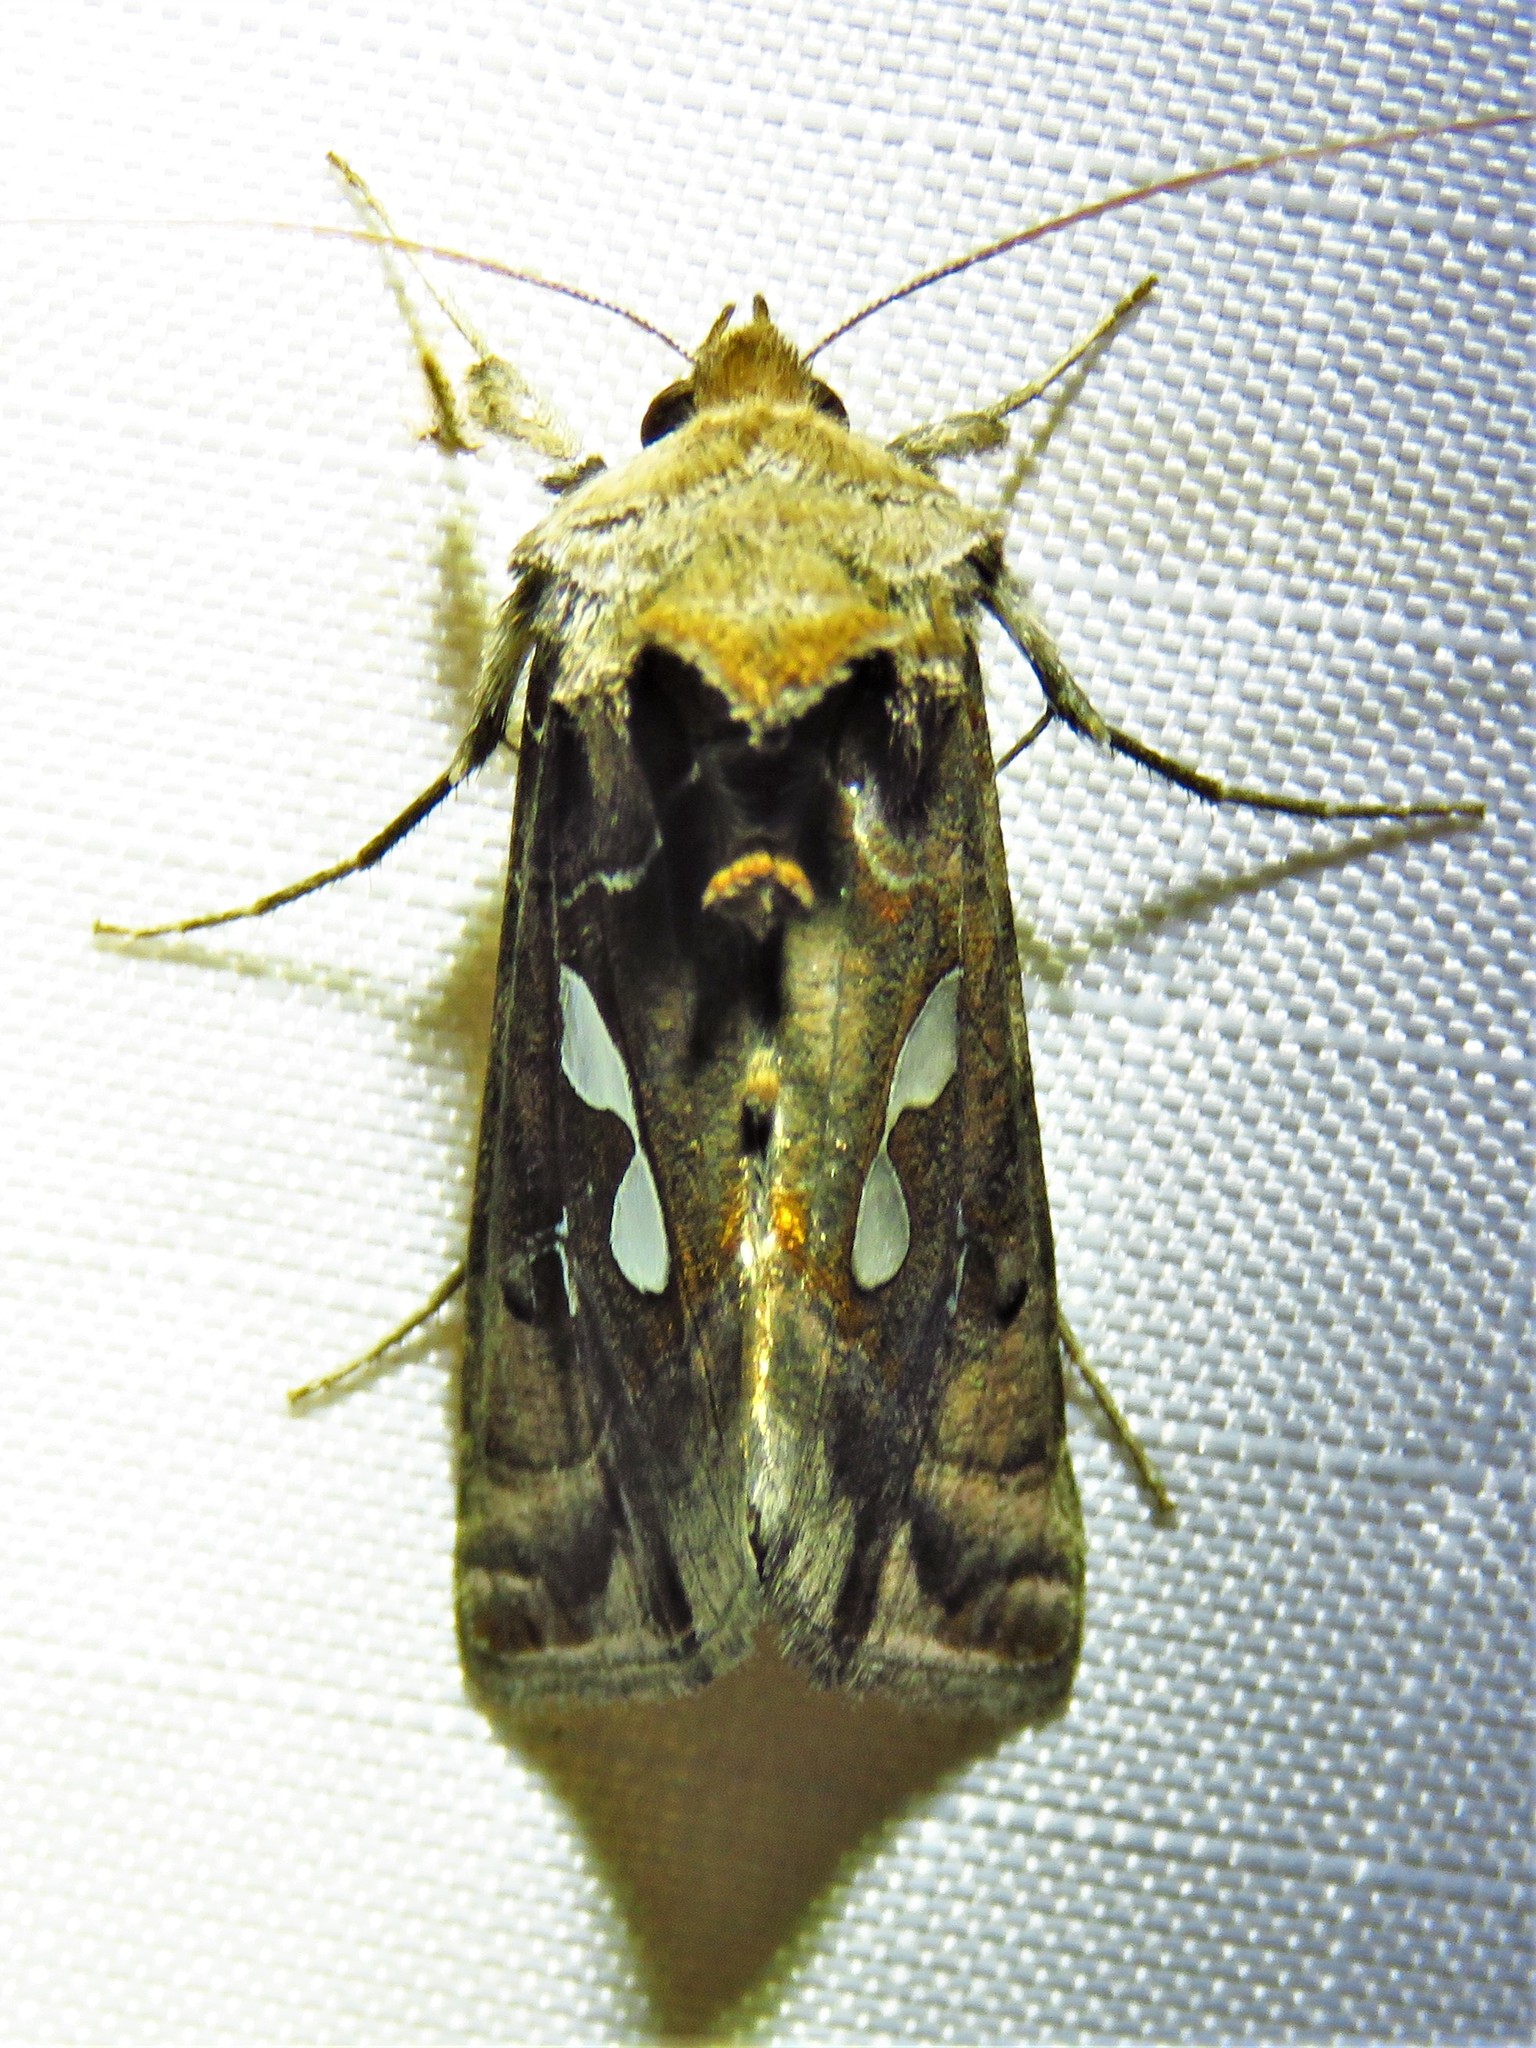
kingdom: Animalia
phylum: Arthropoda
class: Insecta
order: Lepidoptera
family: Noctuidae
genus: Megalographa
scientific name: Megalographa biloba
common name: Cutworm
